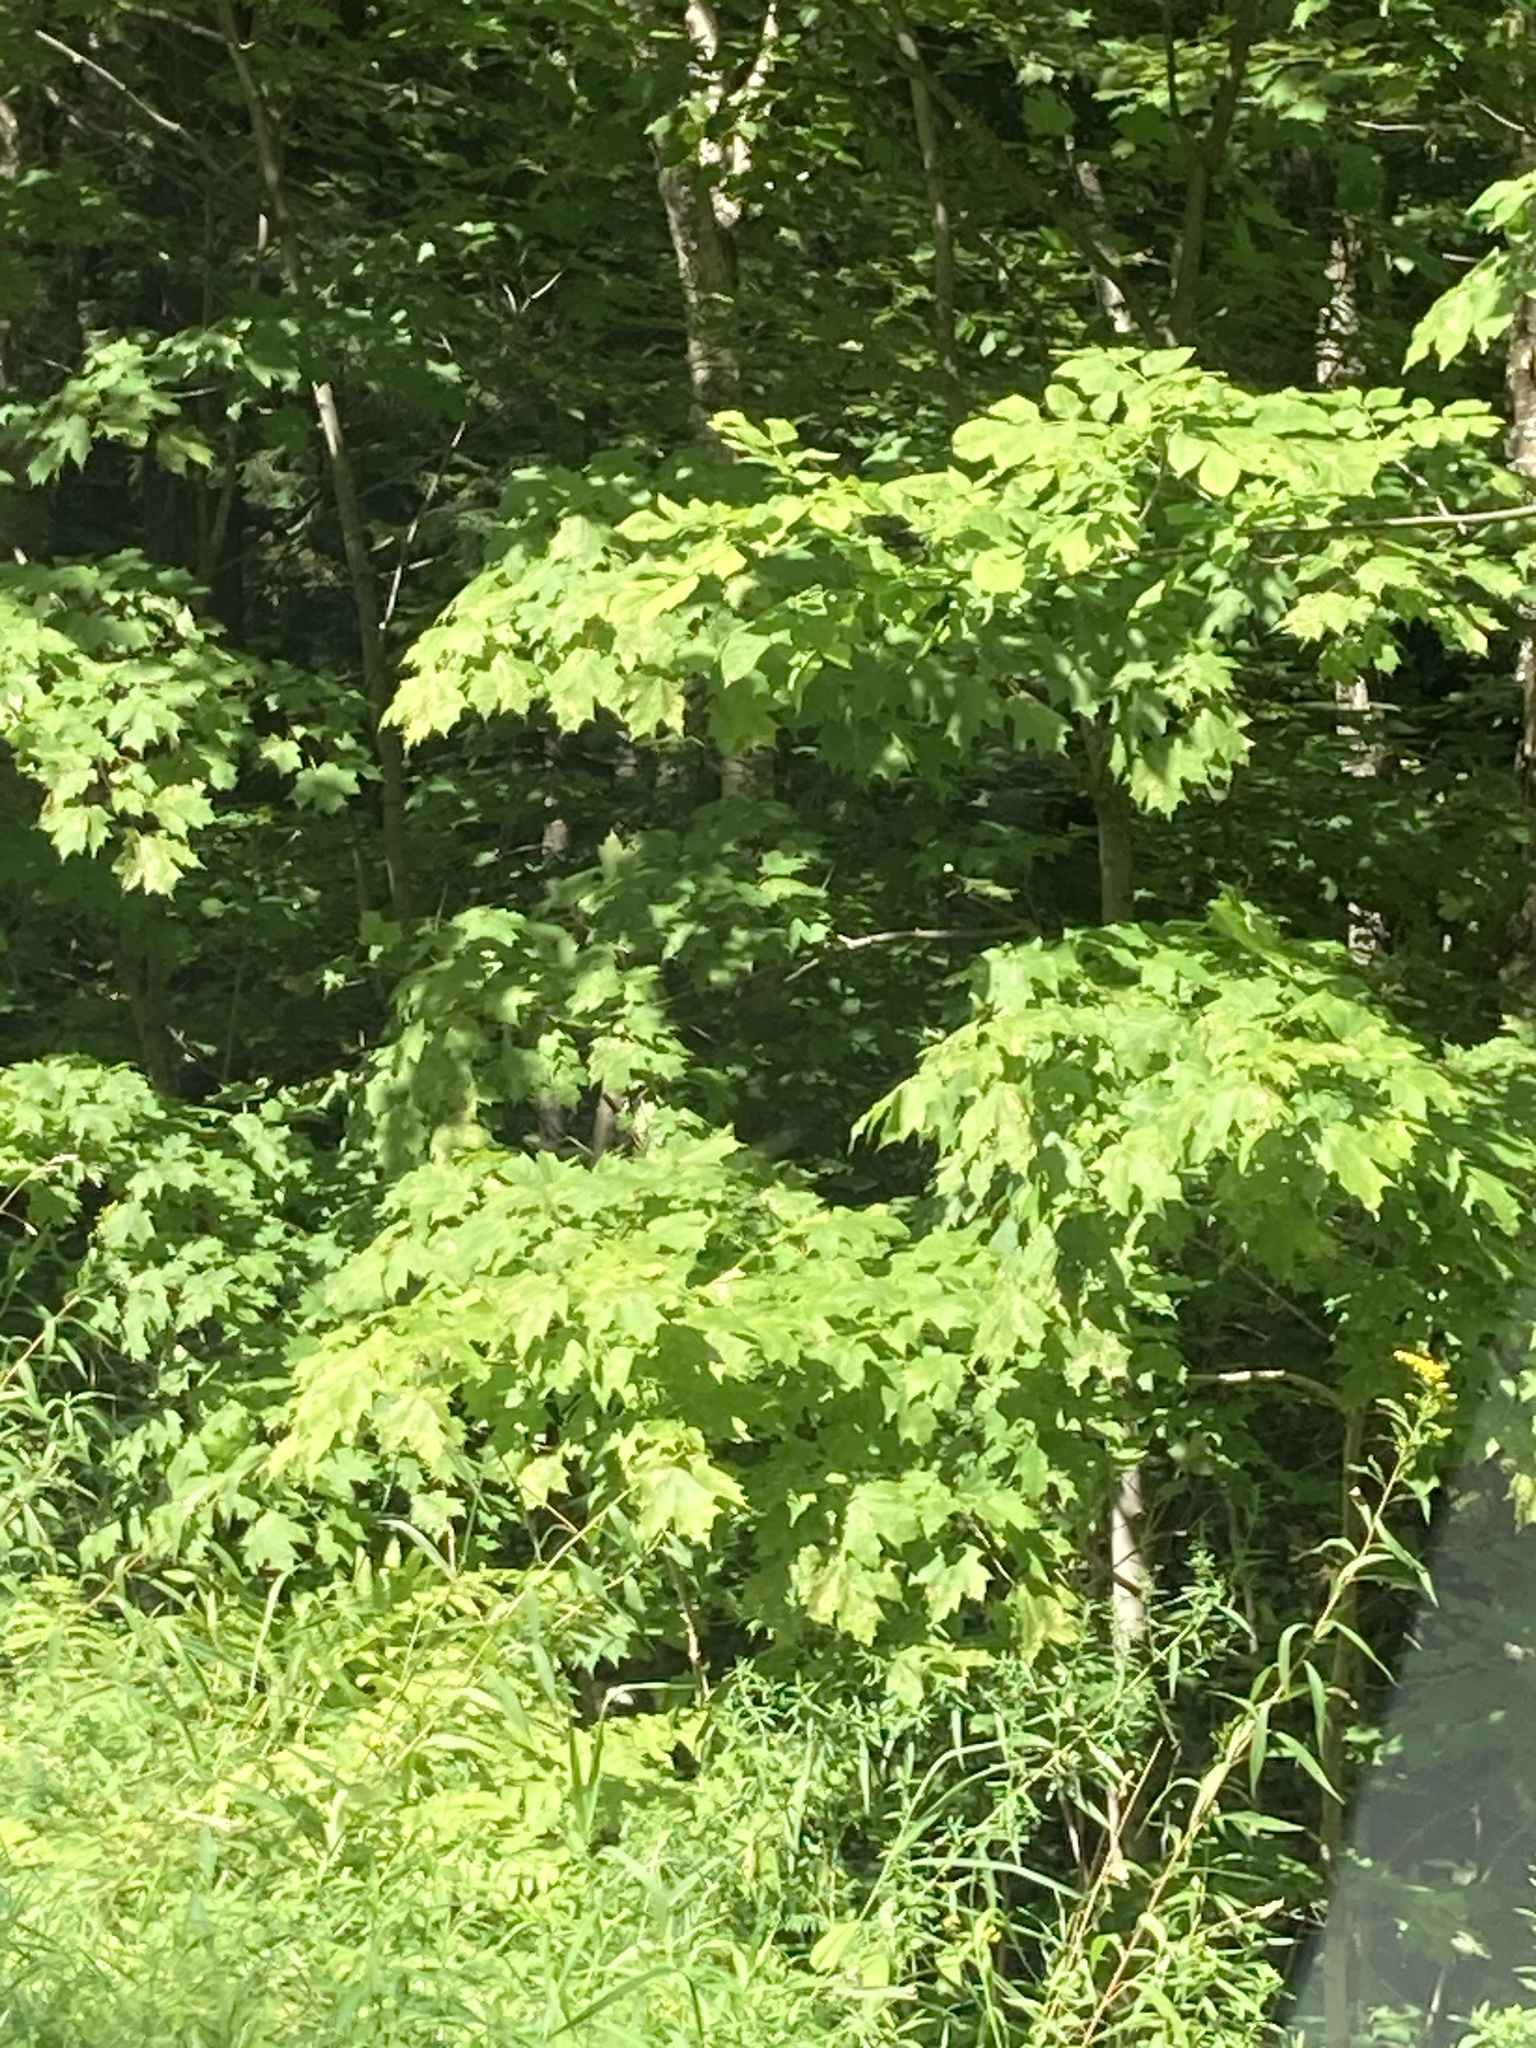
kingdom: Plantae
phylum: Tracheophyta
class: Magnoliopsida
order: Sapindales
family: Sapindaceae
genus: Acer
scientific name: Acer saccharum
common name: Sugar maple
